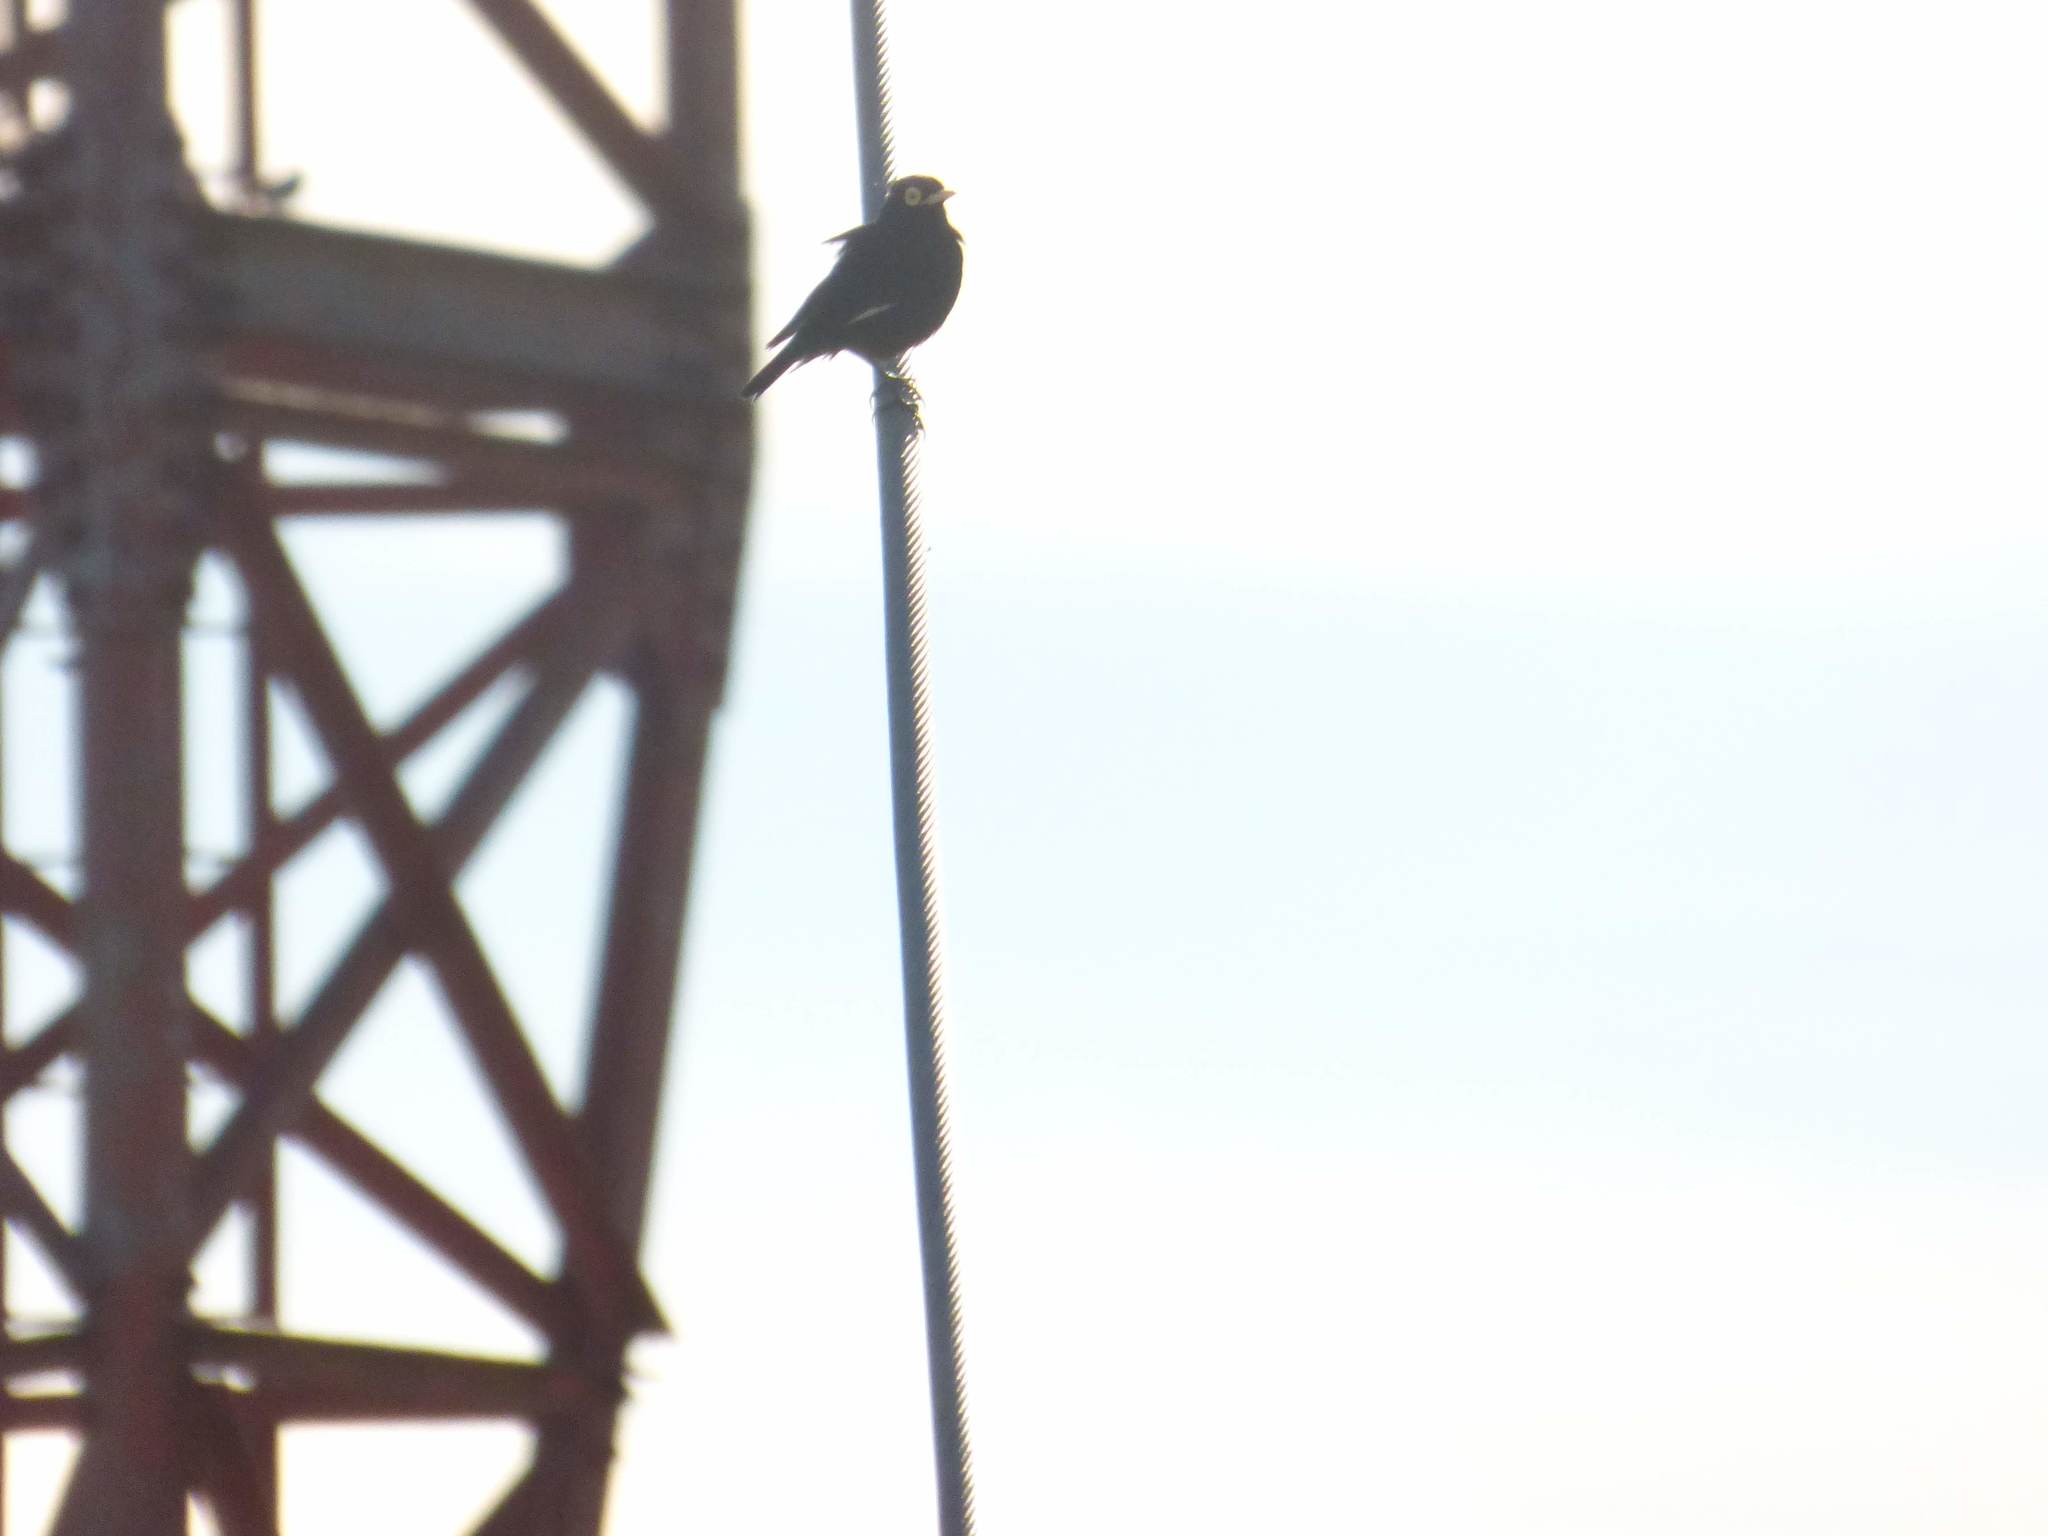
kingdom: Animalia
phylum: Chordata
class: Aves
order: Passeriformes
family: Tyrannidae
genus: Hymenops
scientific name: Hymenops perspicillatus
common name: Spectacled tyrant
